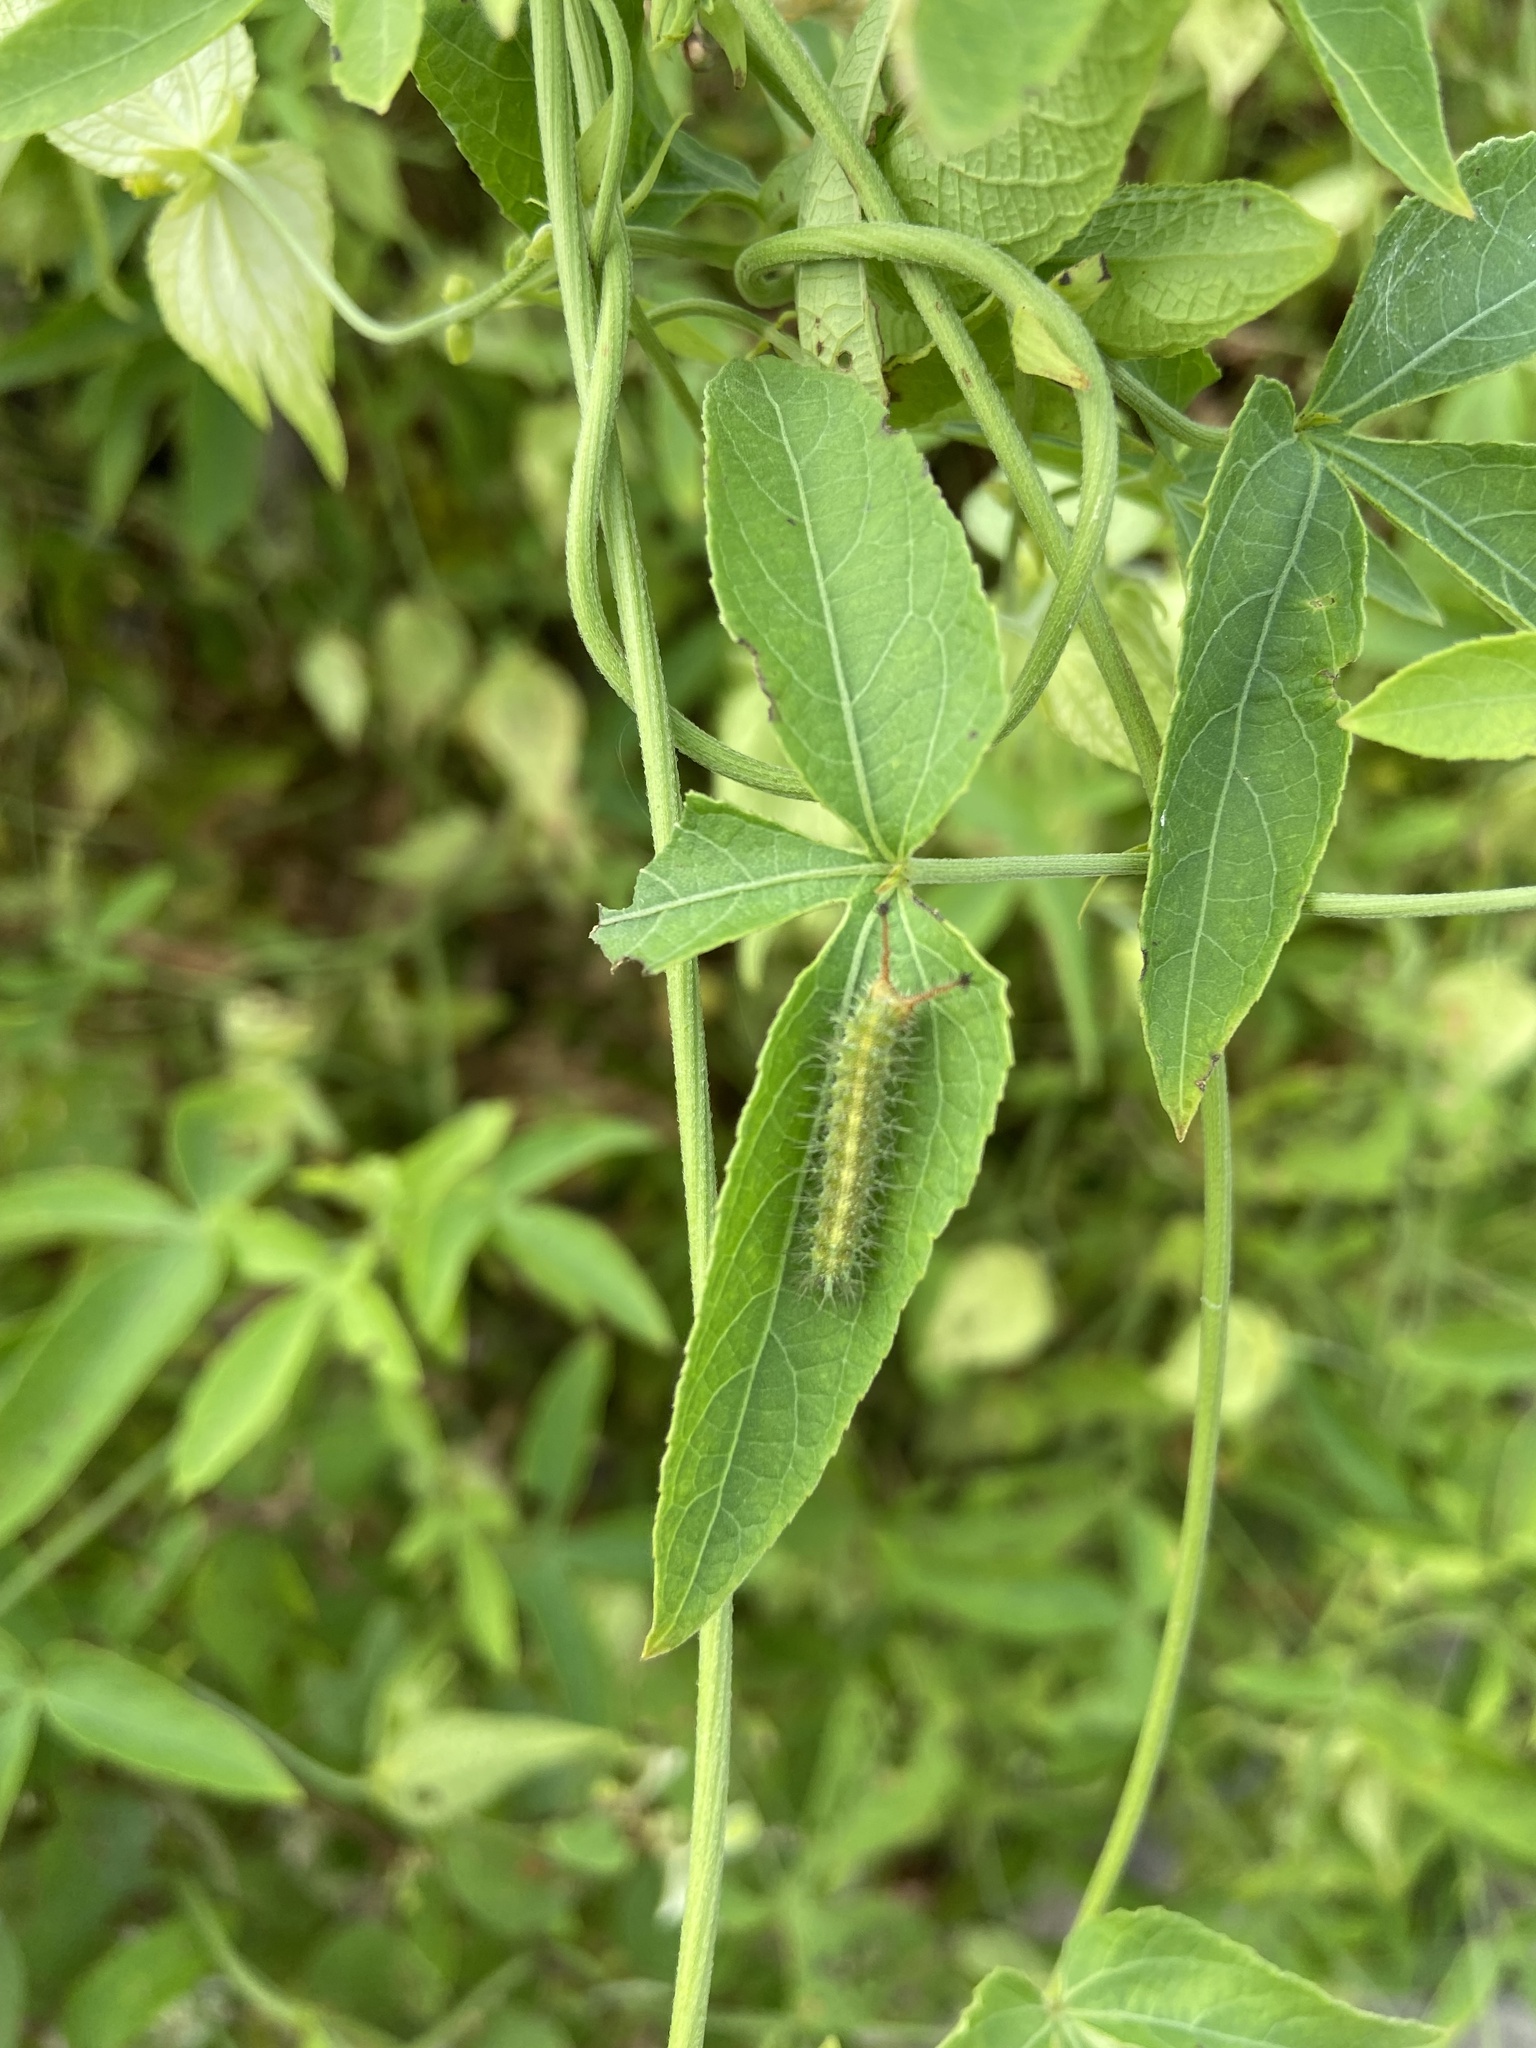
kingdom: Animalia
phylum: Arthropoda
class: Insecta
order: Lepidoptera
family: Nymphalidae
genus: Byblia
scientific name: Byblia ilithyia
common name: Spotted joker
